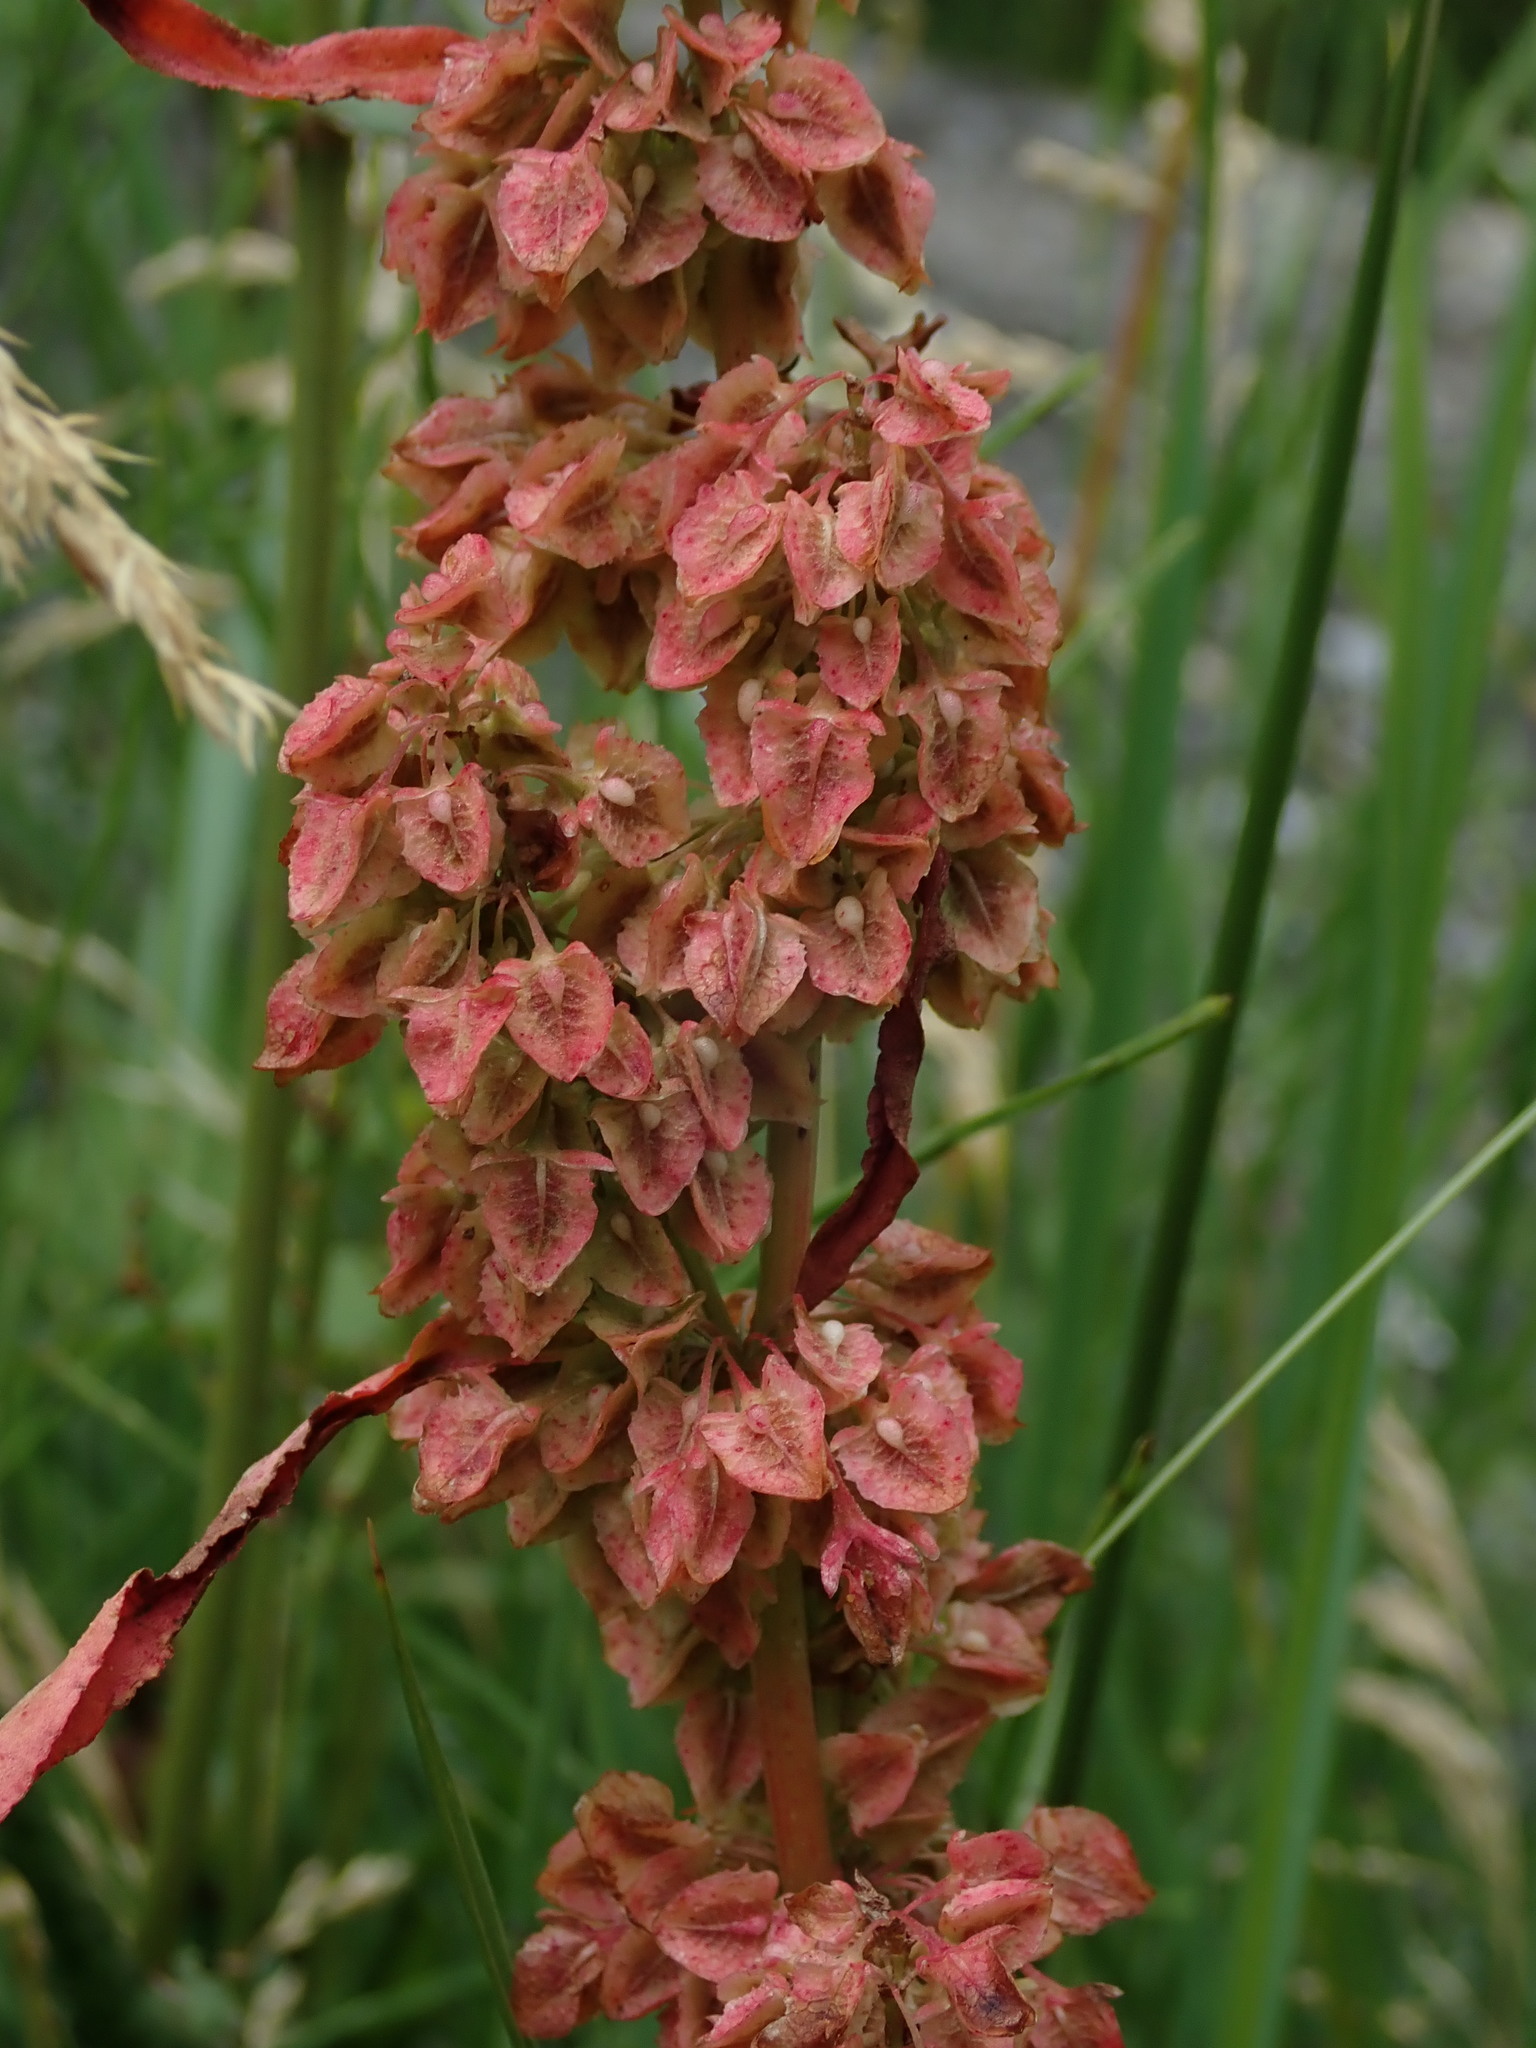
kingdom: Plantae
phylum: Tracheophyta
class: Magnoliopsida
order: Caryophyllales
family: Polygonaceae
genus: Rumex
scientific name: Rumex crispus
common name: Curled dock
